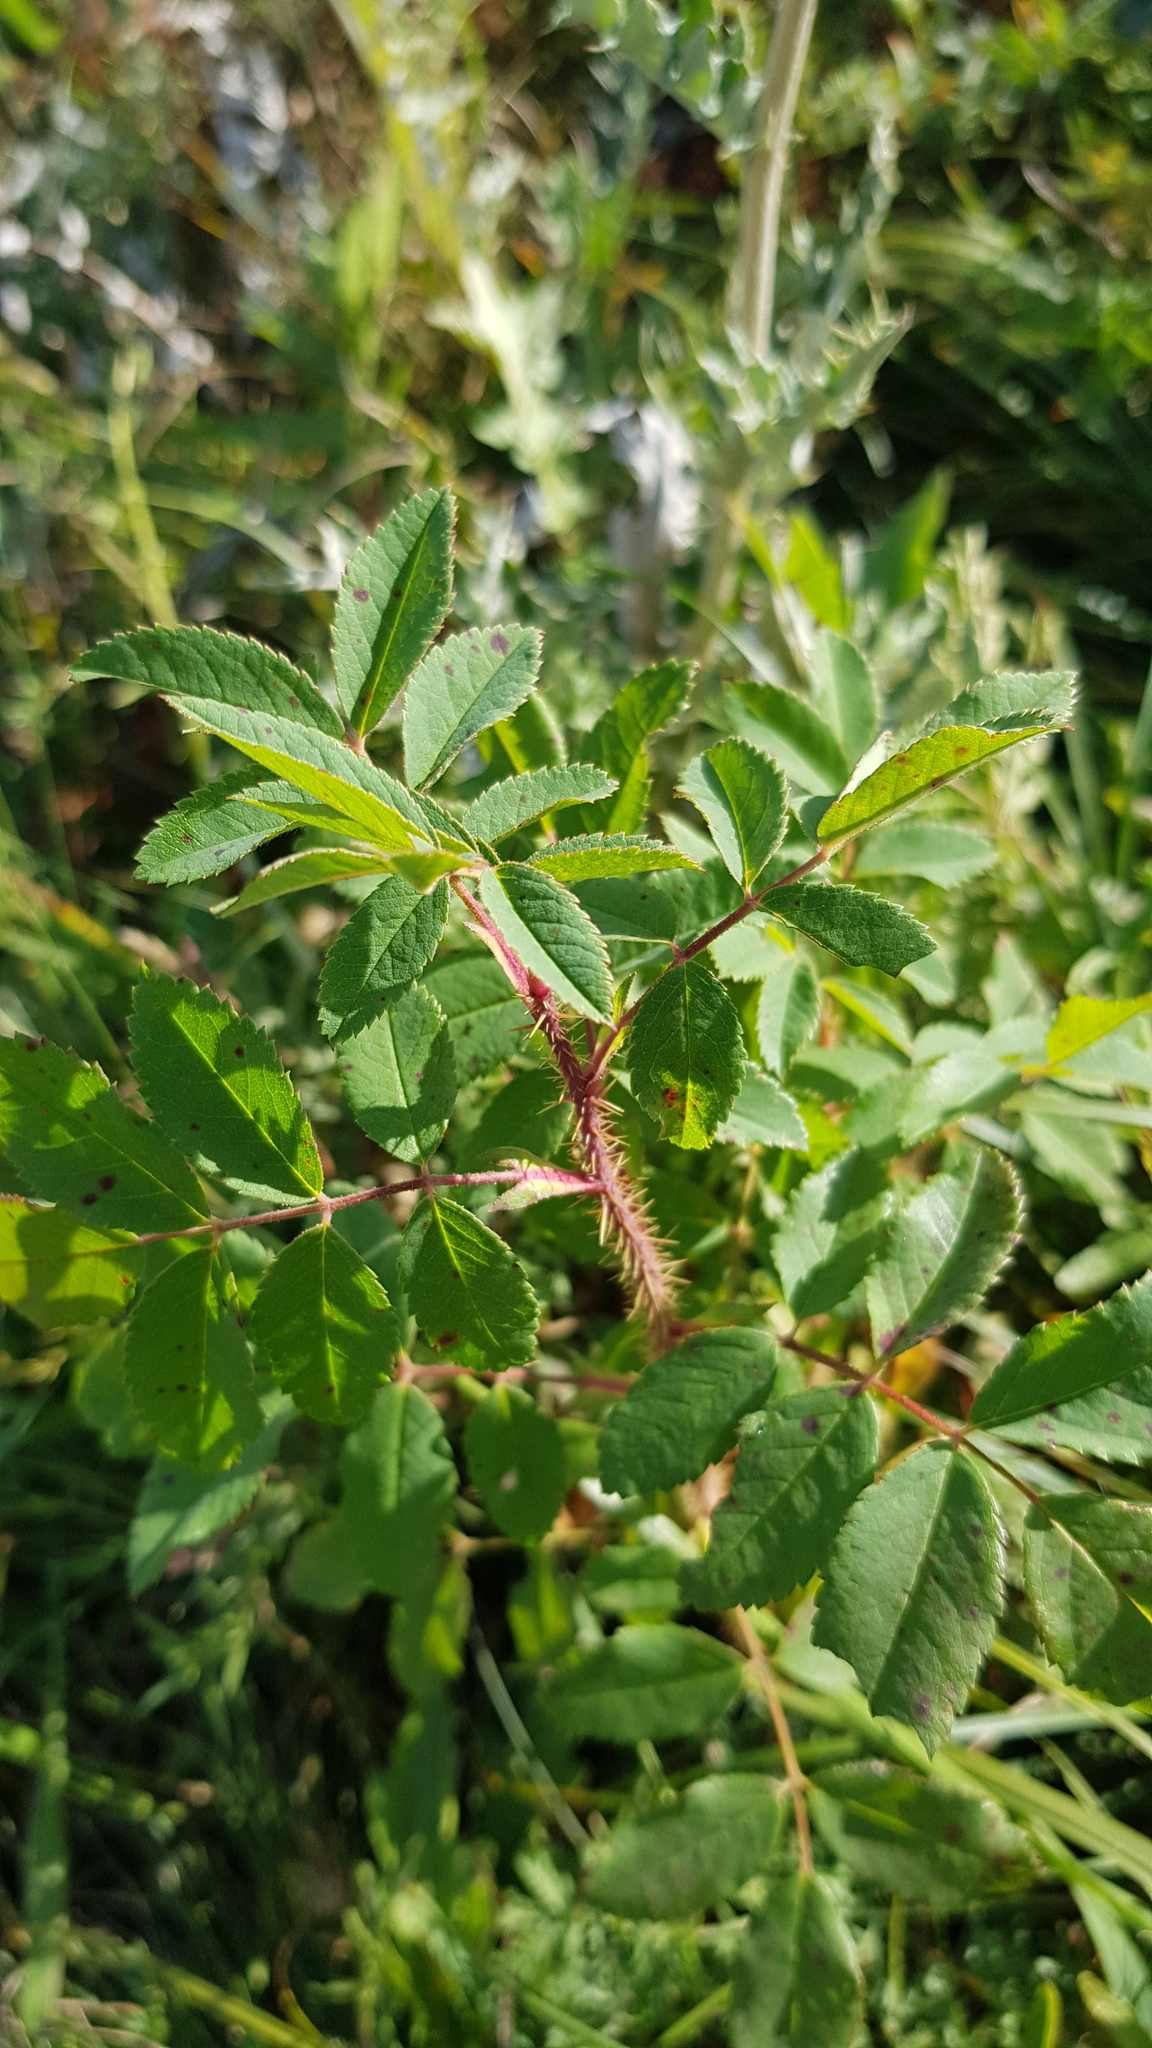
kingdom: Plantae
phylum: Tracheophyta
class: Magnoliopsida
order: Rosales
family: Rosaceae
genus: Rosa
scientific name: Rosa acicularis
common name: Prickly rose
